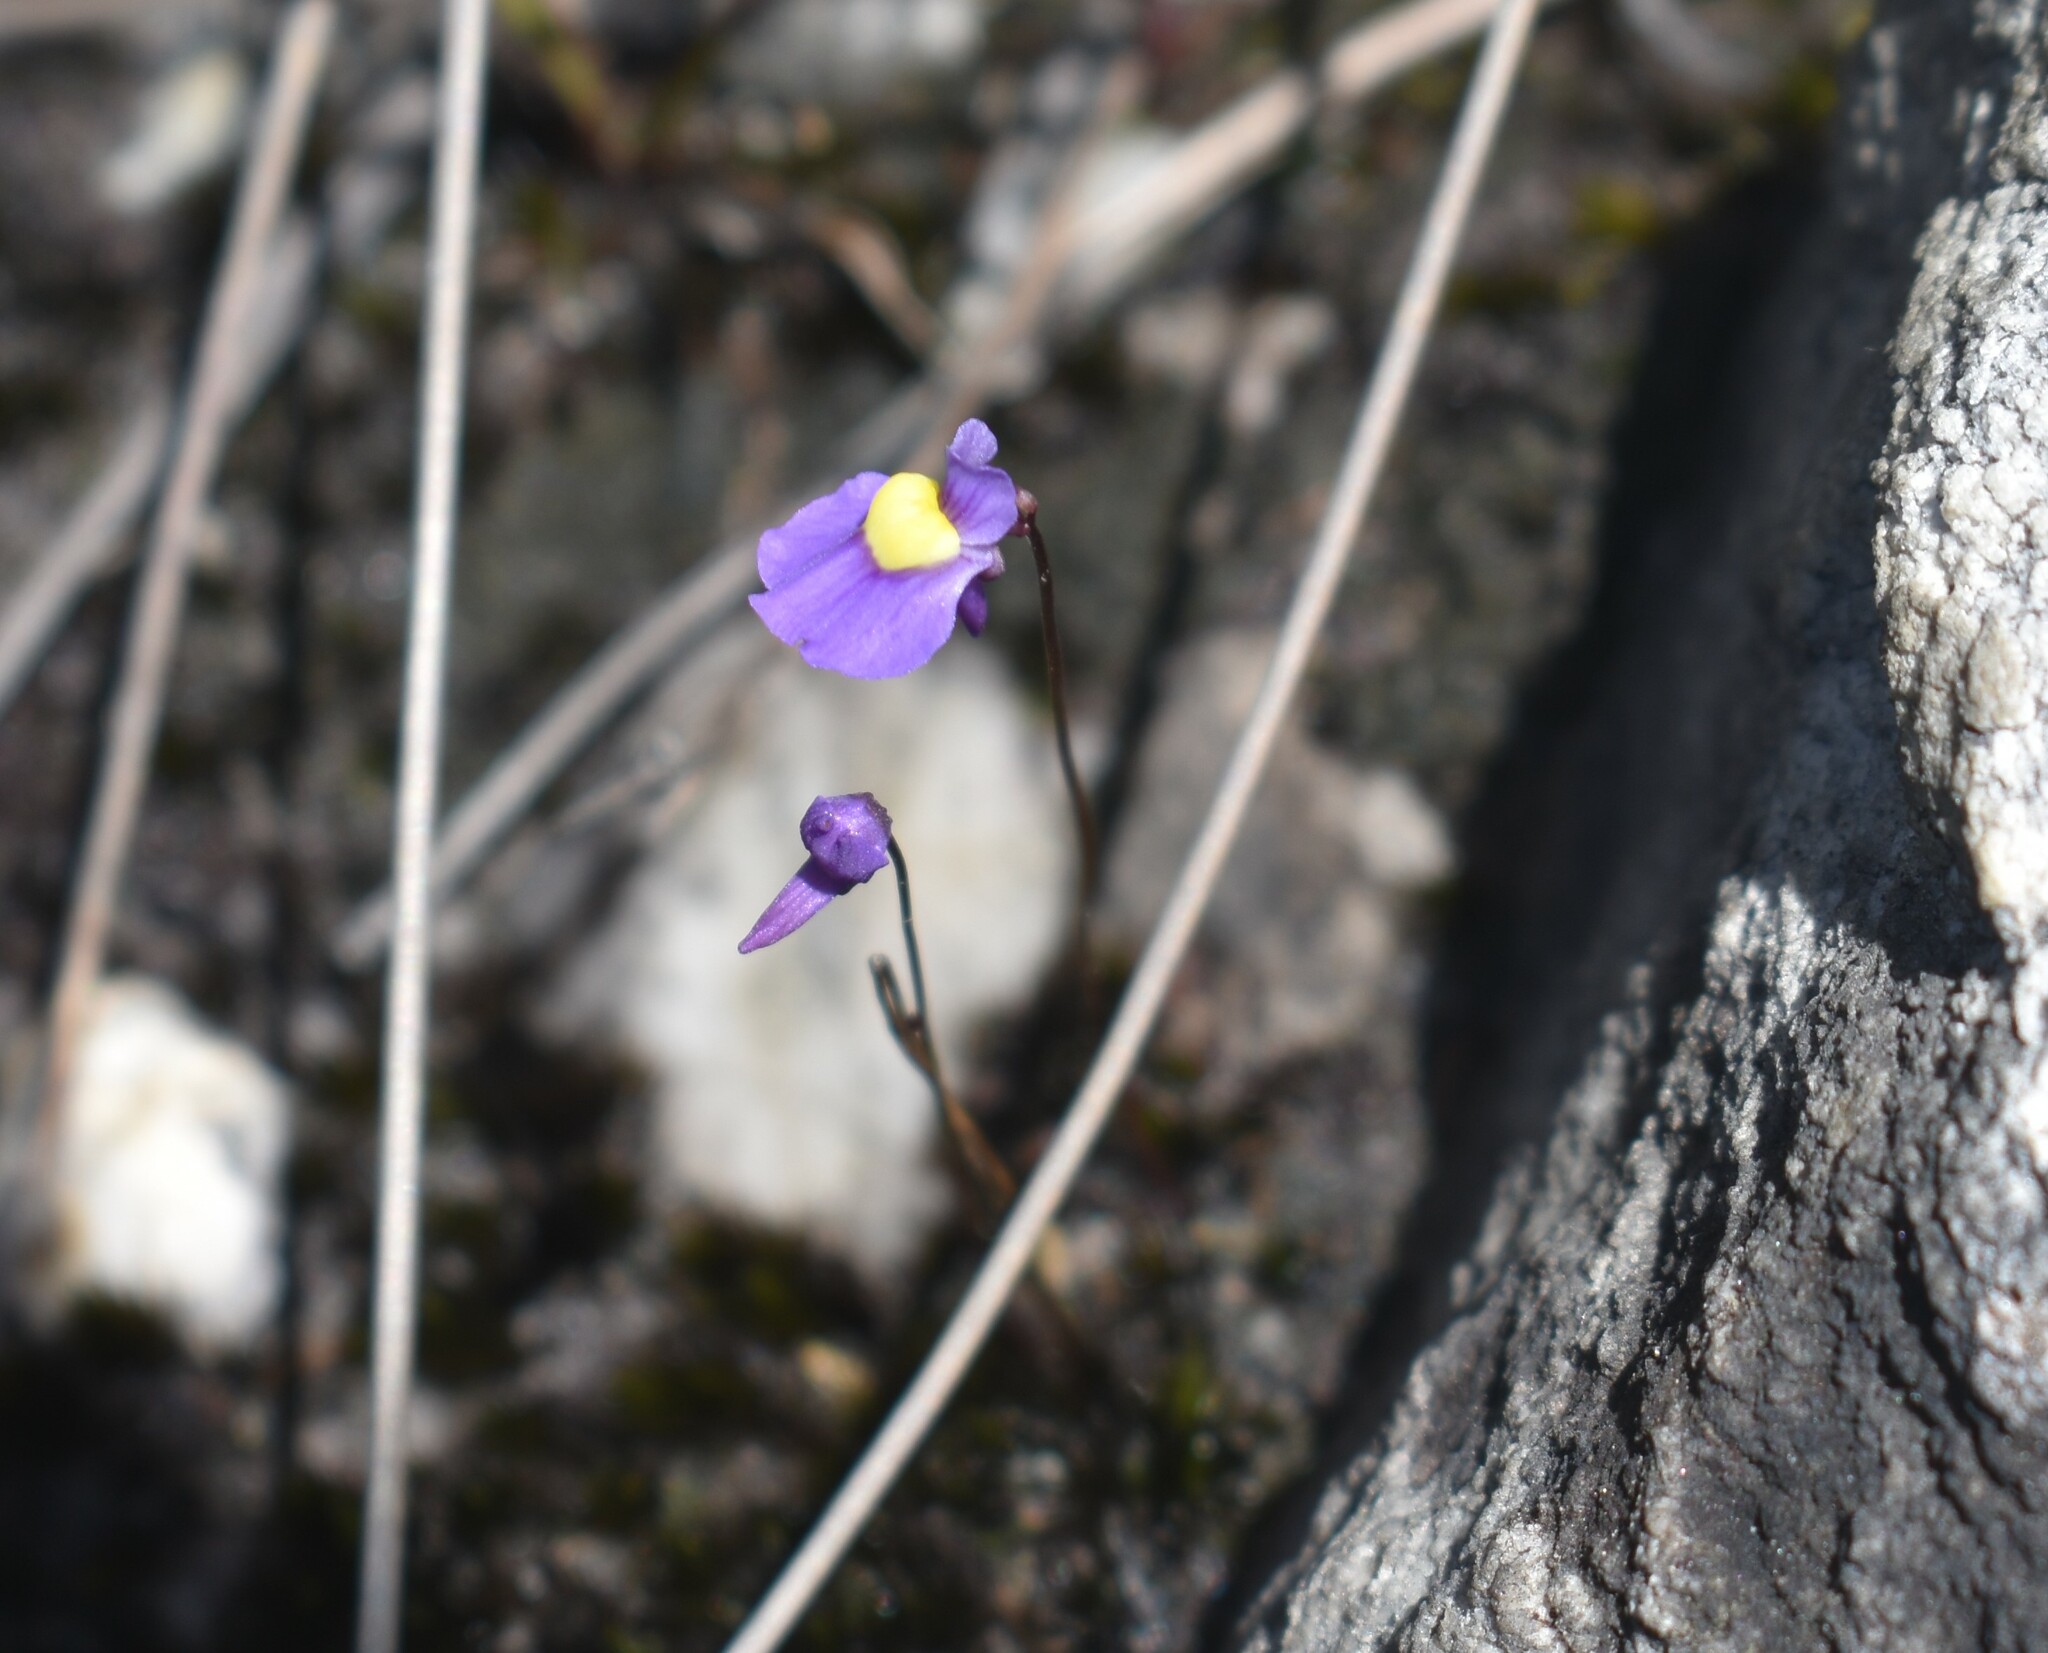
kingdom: Plantae
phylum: Tracheophyta
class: Magnoliopsida
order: Lamiales
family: Lentibulariaceae
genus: Utricularia
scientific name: Utricularia bisquamata
